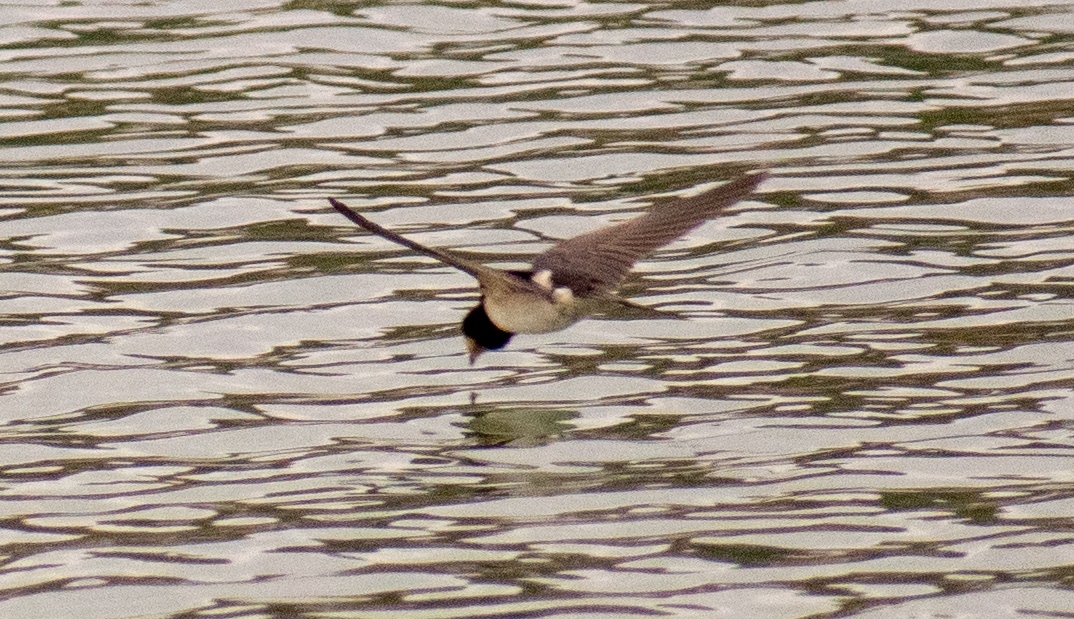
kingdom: Animalia
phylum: Chordata
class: Aves
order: Passeriformes
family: Hirundinidae
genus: Hirundo
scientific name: Hirundo rustica
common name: Barn swallow
